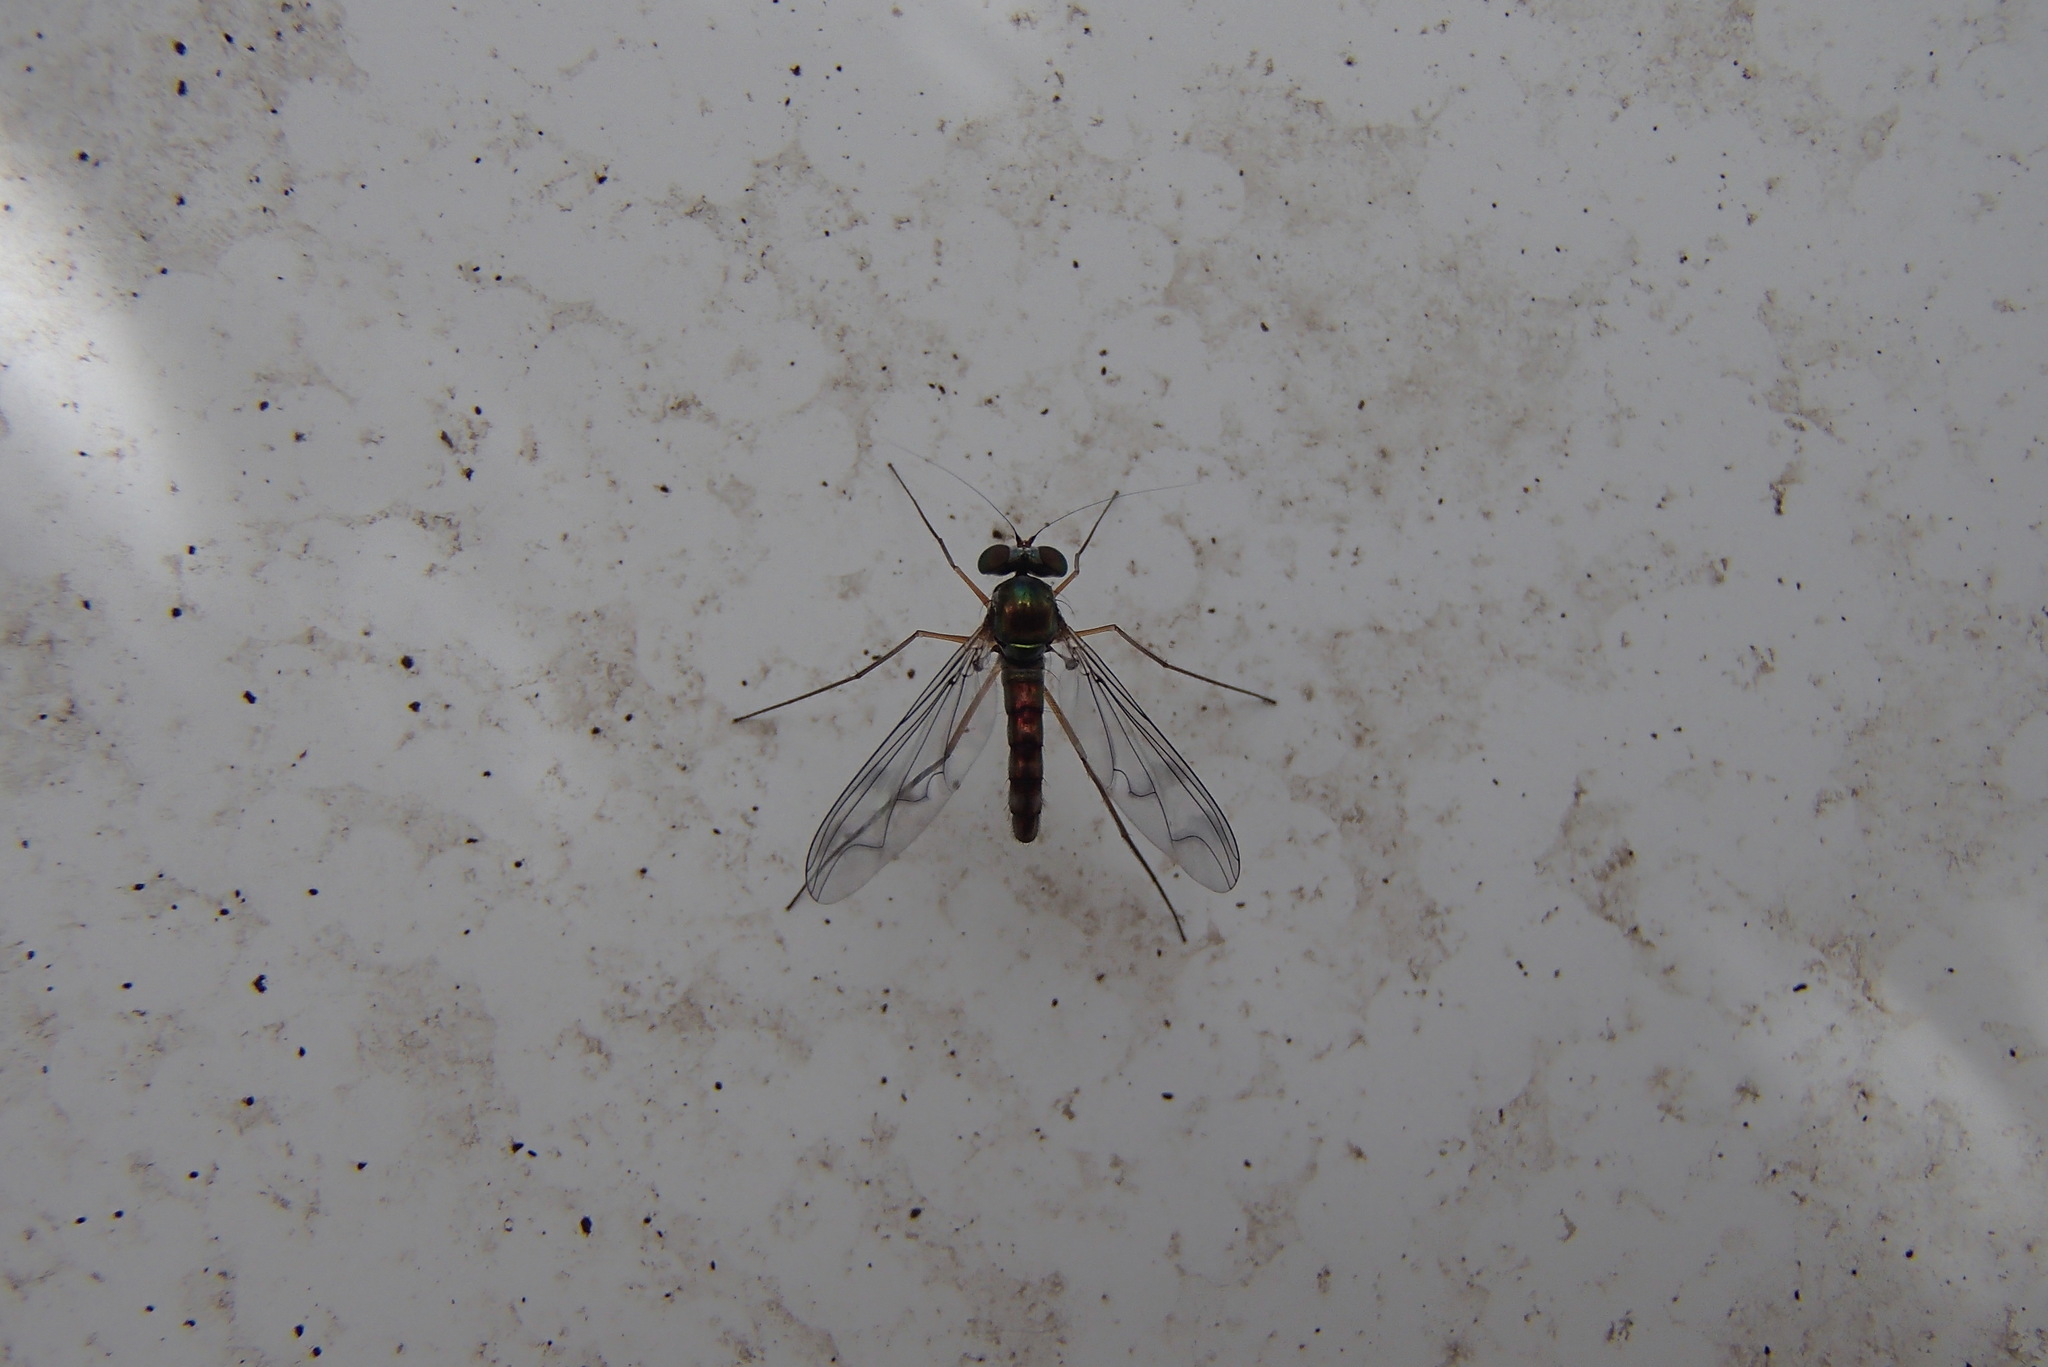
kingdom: Animalia
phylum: Arthropoda
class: Insecta
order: Diptera
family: Dolichopodidae
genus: Heteropsilopus
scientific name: Heteropsilopus squamifer
